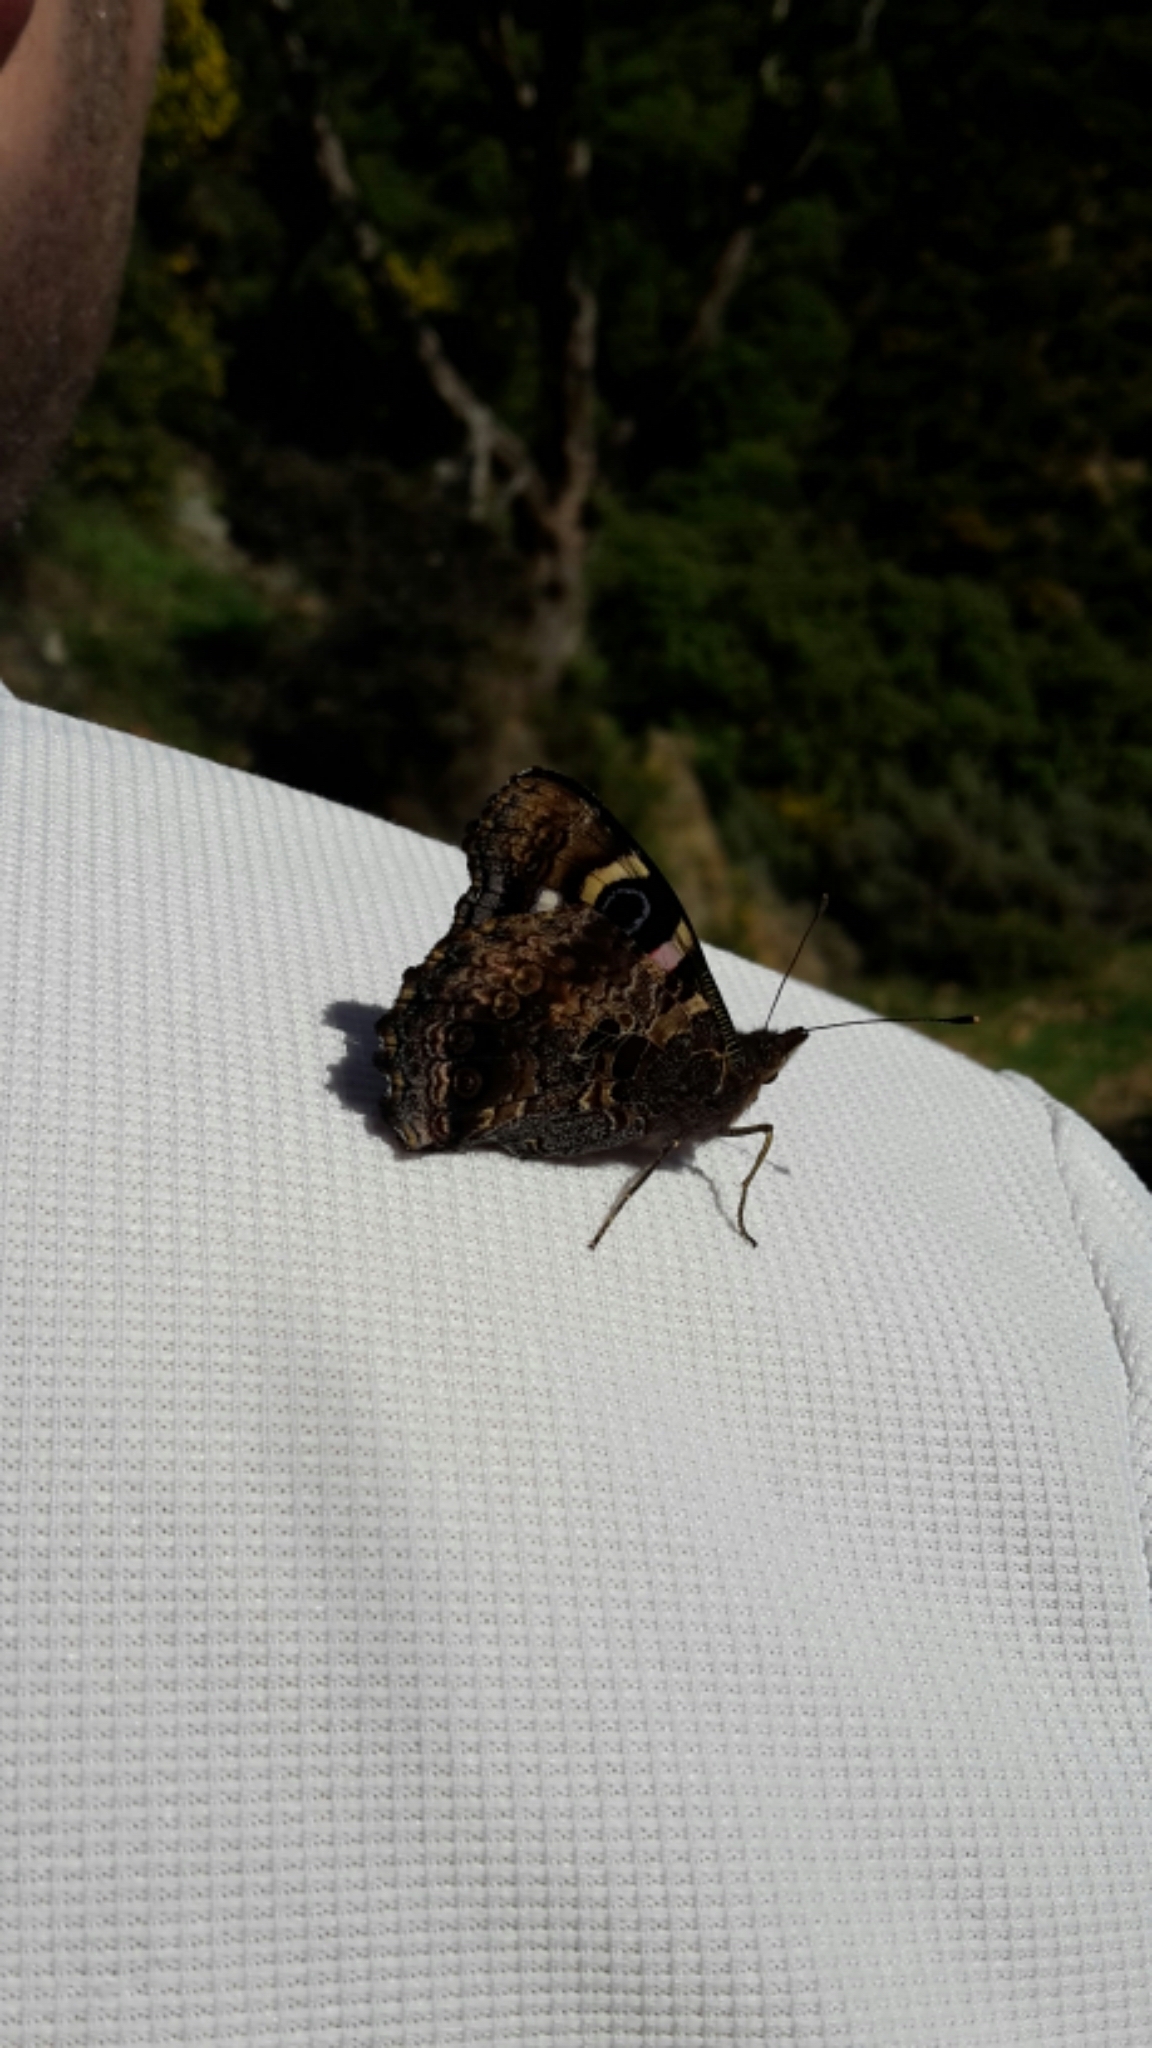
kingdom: Animalia
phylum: Arthropoda
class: Insecta
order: Lepidoptera
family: Nymphalidae
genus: Vanessa
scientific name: Vanessa gonerilla
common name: New zealand red admiral
